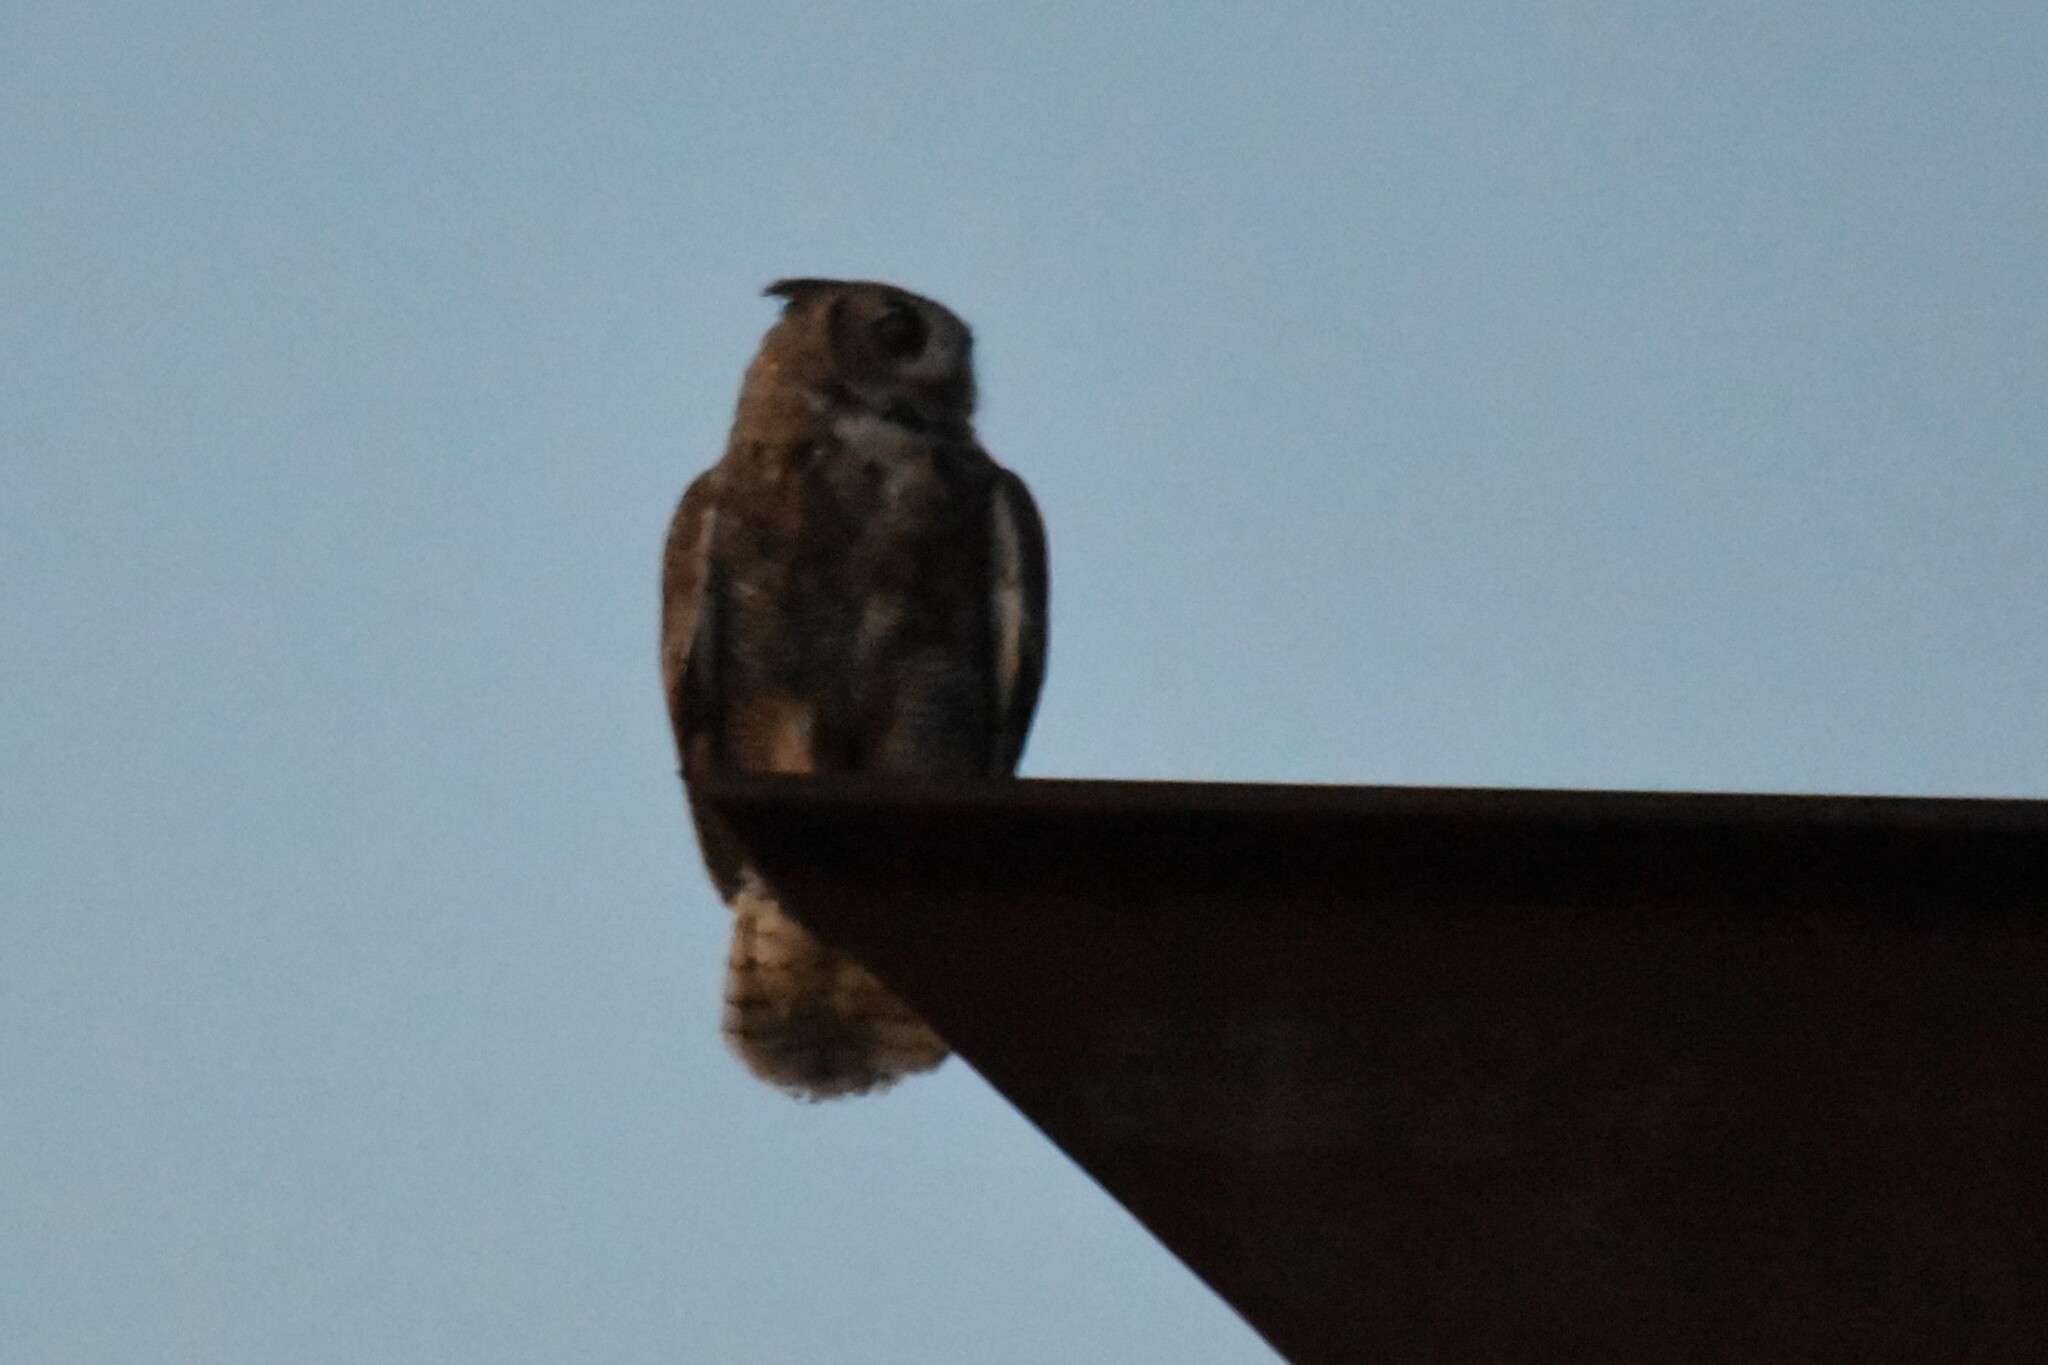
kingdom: Animalia
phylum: Chordata
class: Aves
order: Strigiformes
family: Strigidae
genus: Bubo
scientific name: Bubo virginianus
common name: Great horned owl
